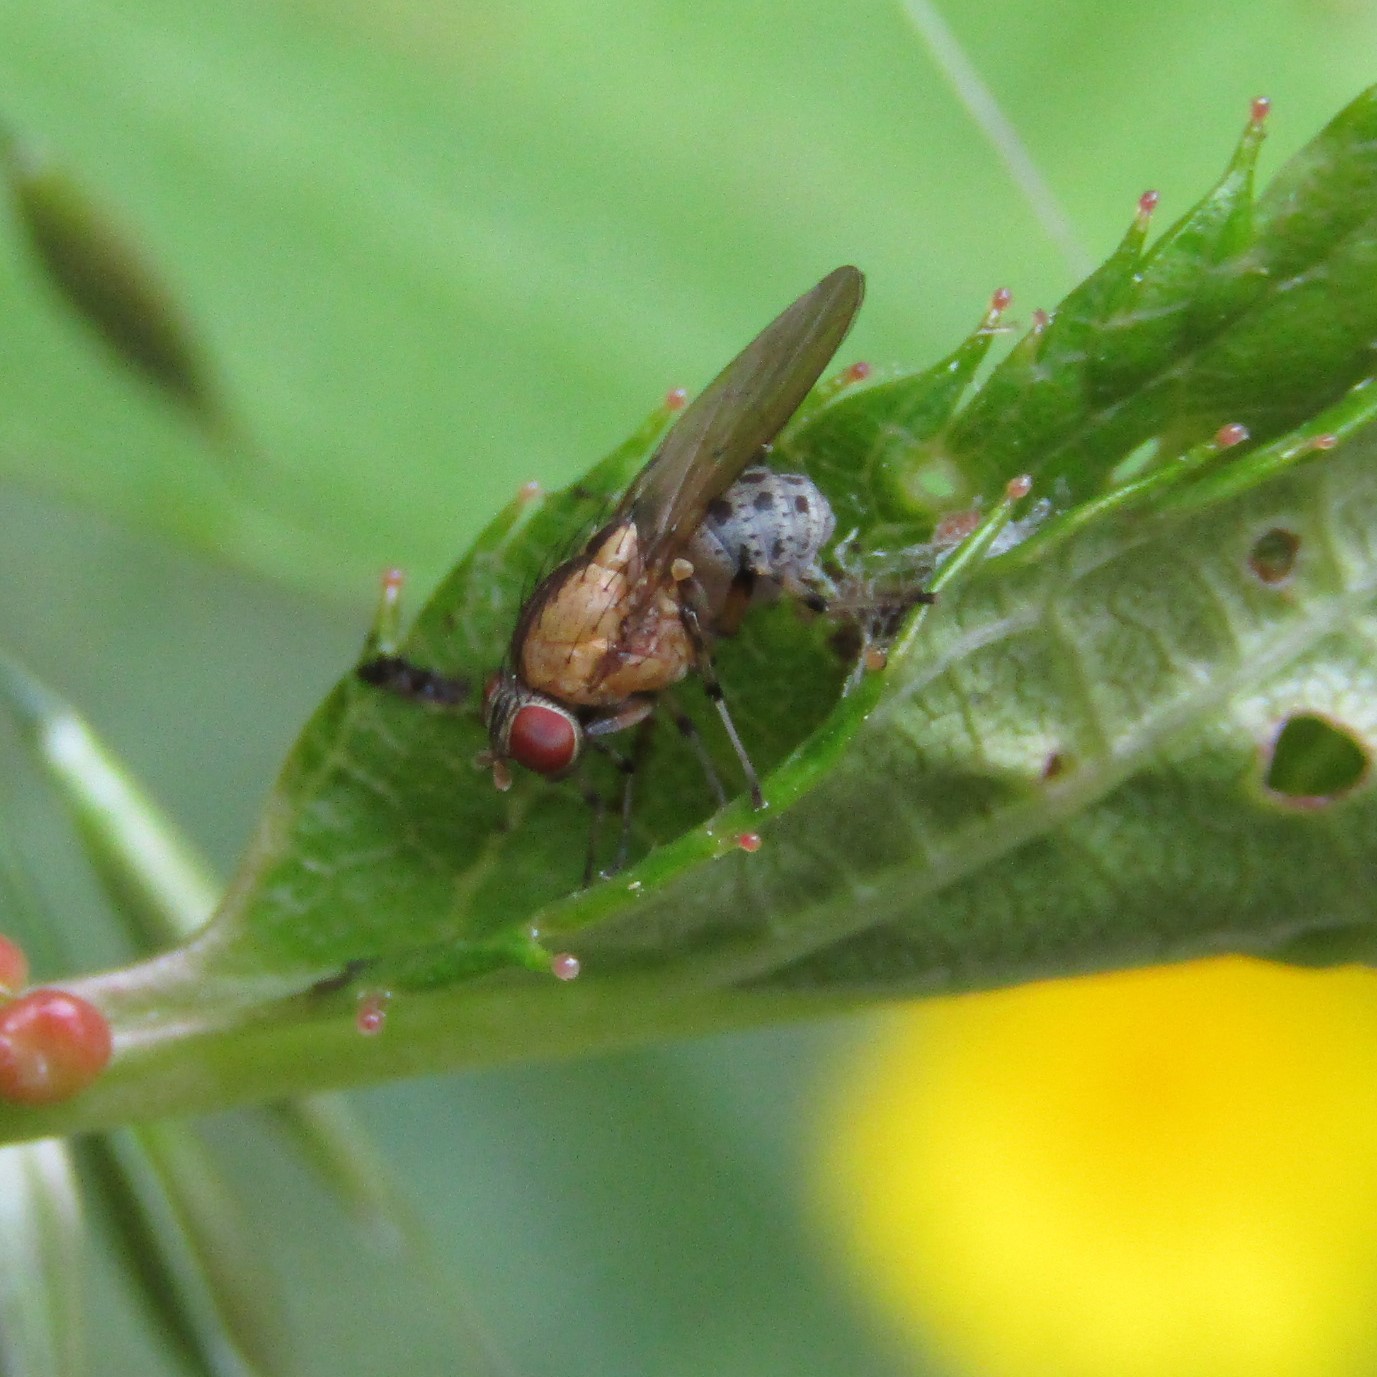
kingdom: Animalia
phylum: Arthropoda
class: Insecta
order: Diptera
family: Lauxaniidae
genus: Sapromyza
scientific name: Sapromyza neozelandica
